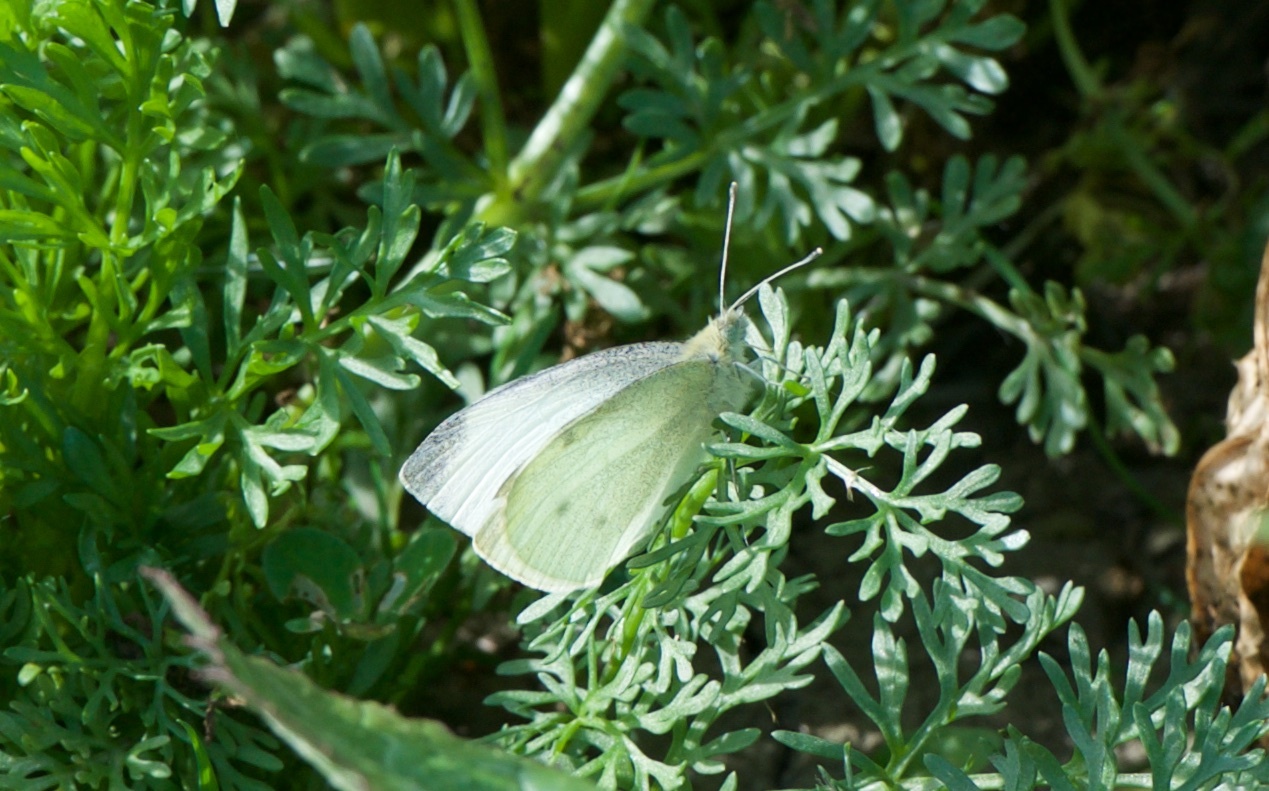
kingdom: Animalia
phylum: Arthropoda
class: Insecta
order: Lepidoptera
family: Pieridae
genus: Pieris
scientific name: Pieris rapae
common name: Small white
